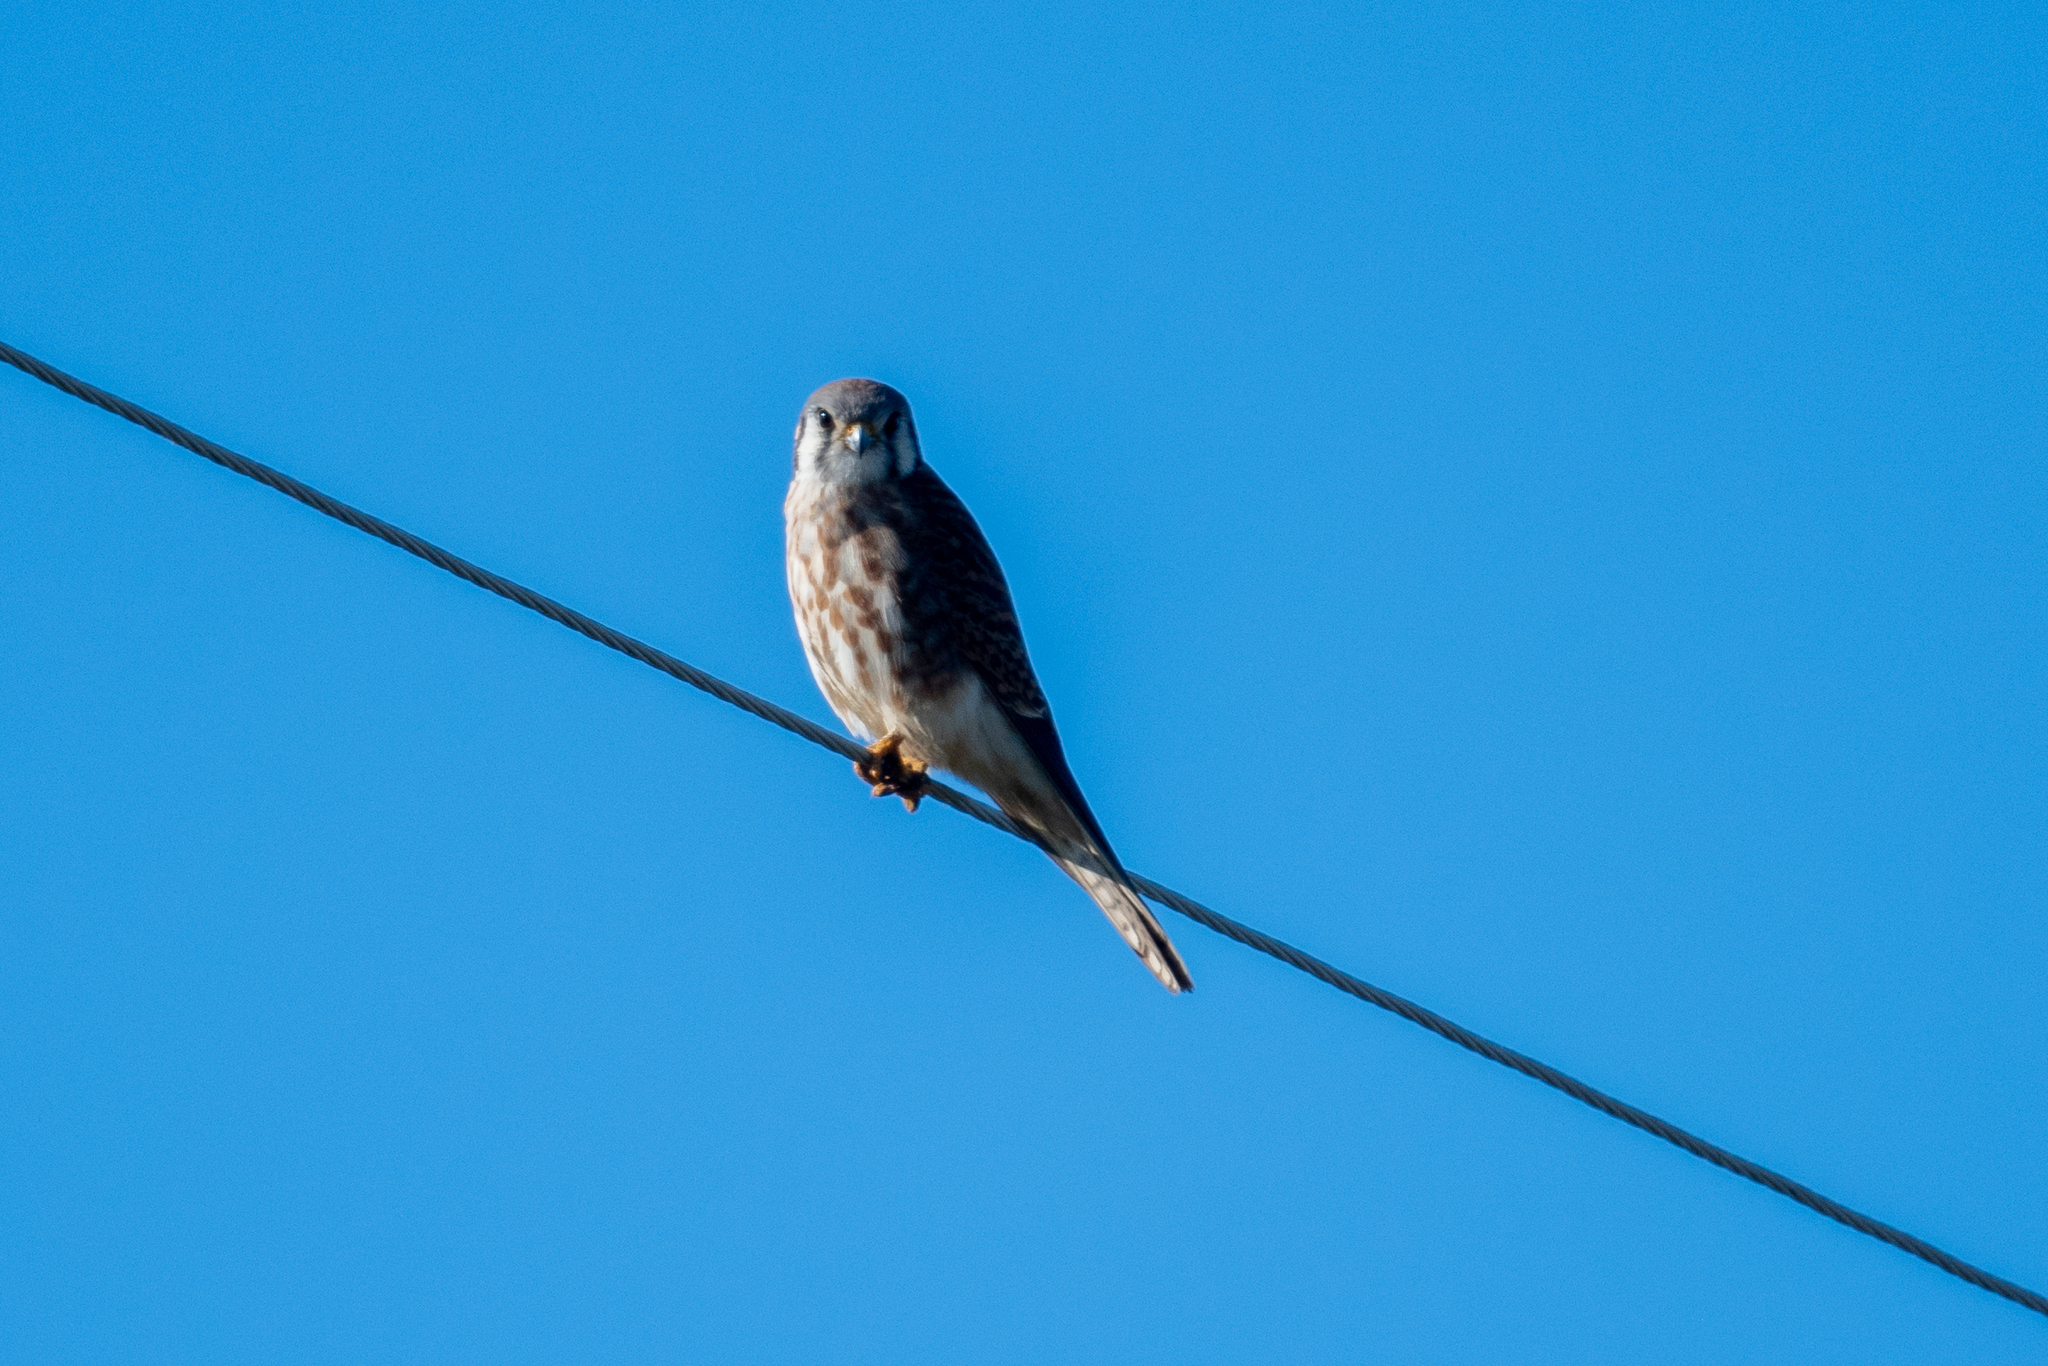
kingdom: Animalia
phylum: Chordata
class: Aves
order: Falconiformes
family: Falconidae
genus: Falco
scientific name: Falco sparverius
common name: American kestrel
